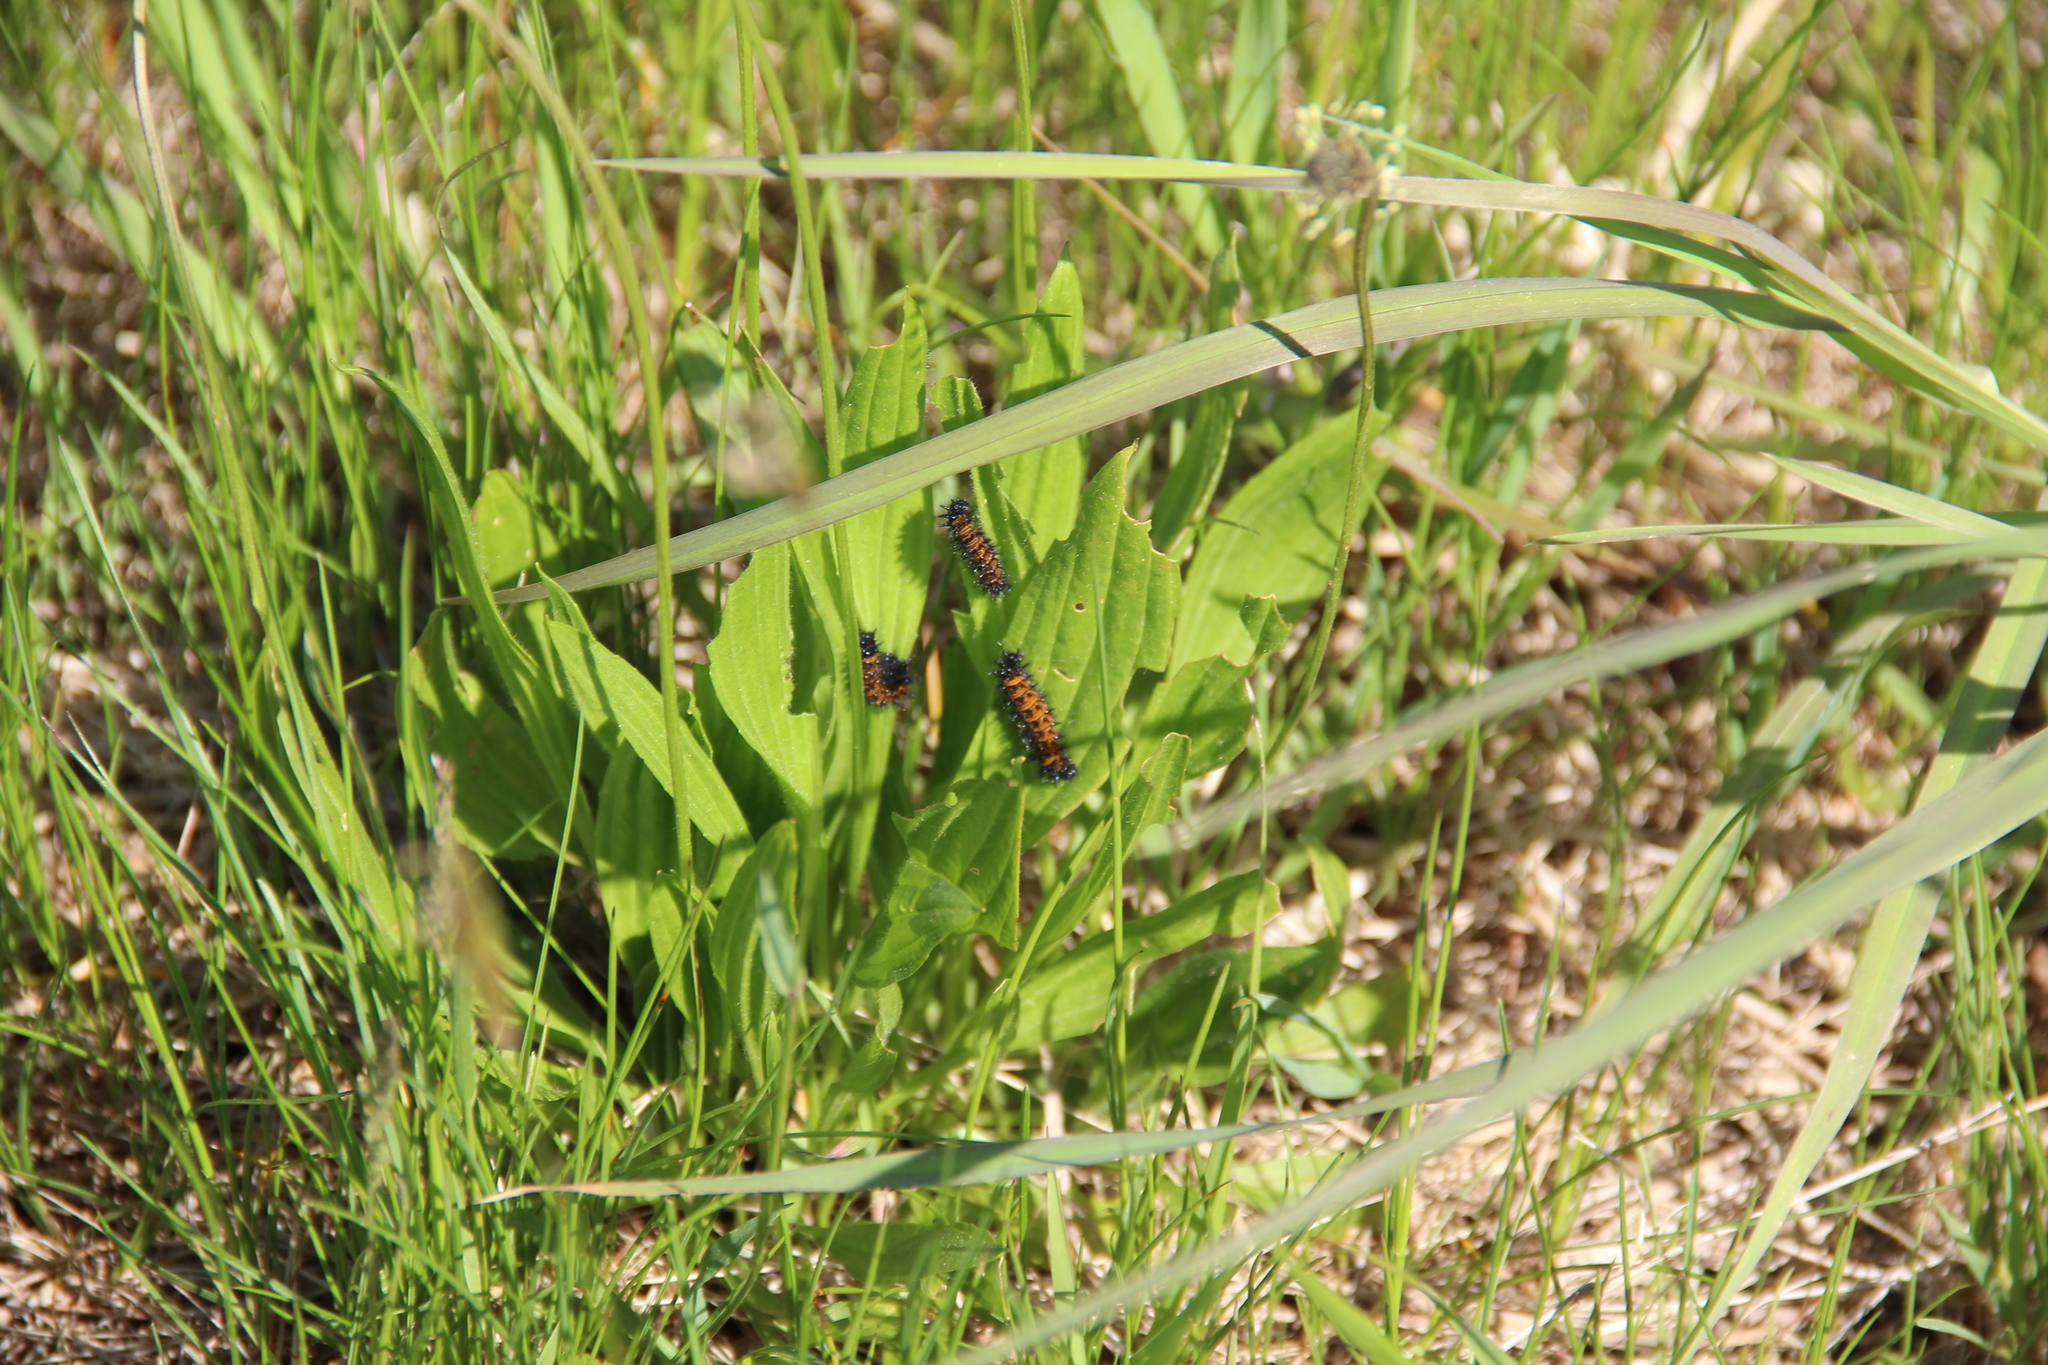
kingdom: Animalia
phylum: Arthropoda
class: Insecta
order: Lepidoptera
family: Nymphalidae
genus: Euphydryas
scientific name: Euphydryas phaeton
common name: Baltimore checkerspot
